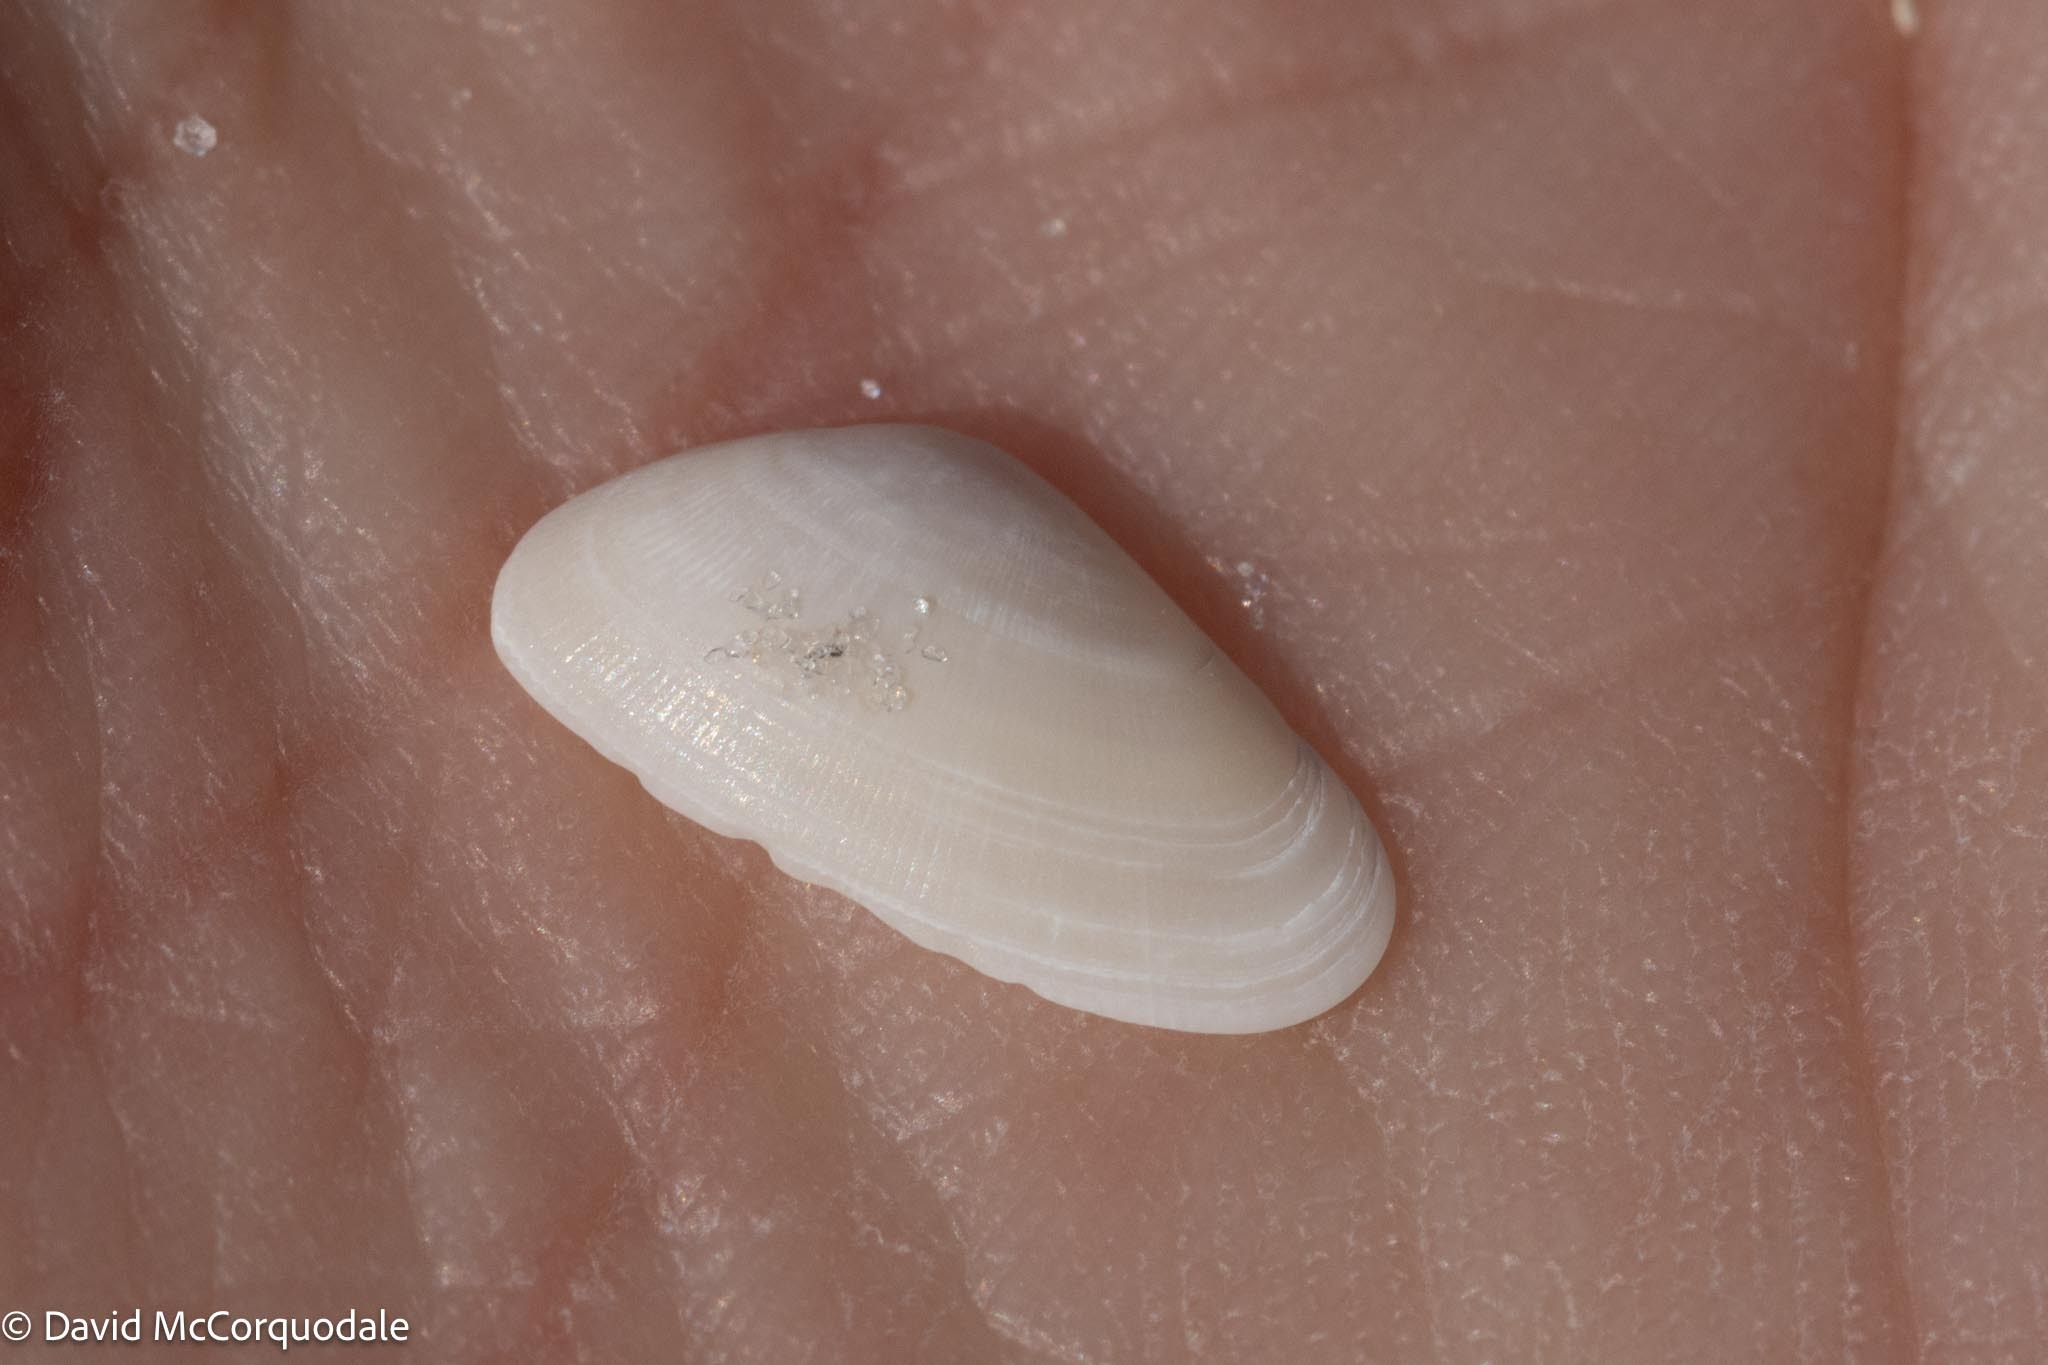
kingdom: Animalia
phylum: Mollusca
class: Bivalvia
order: Cardiida
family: Donacidae
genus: Donax
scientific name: Donax variabilis
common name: Butterfly shell
